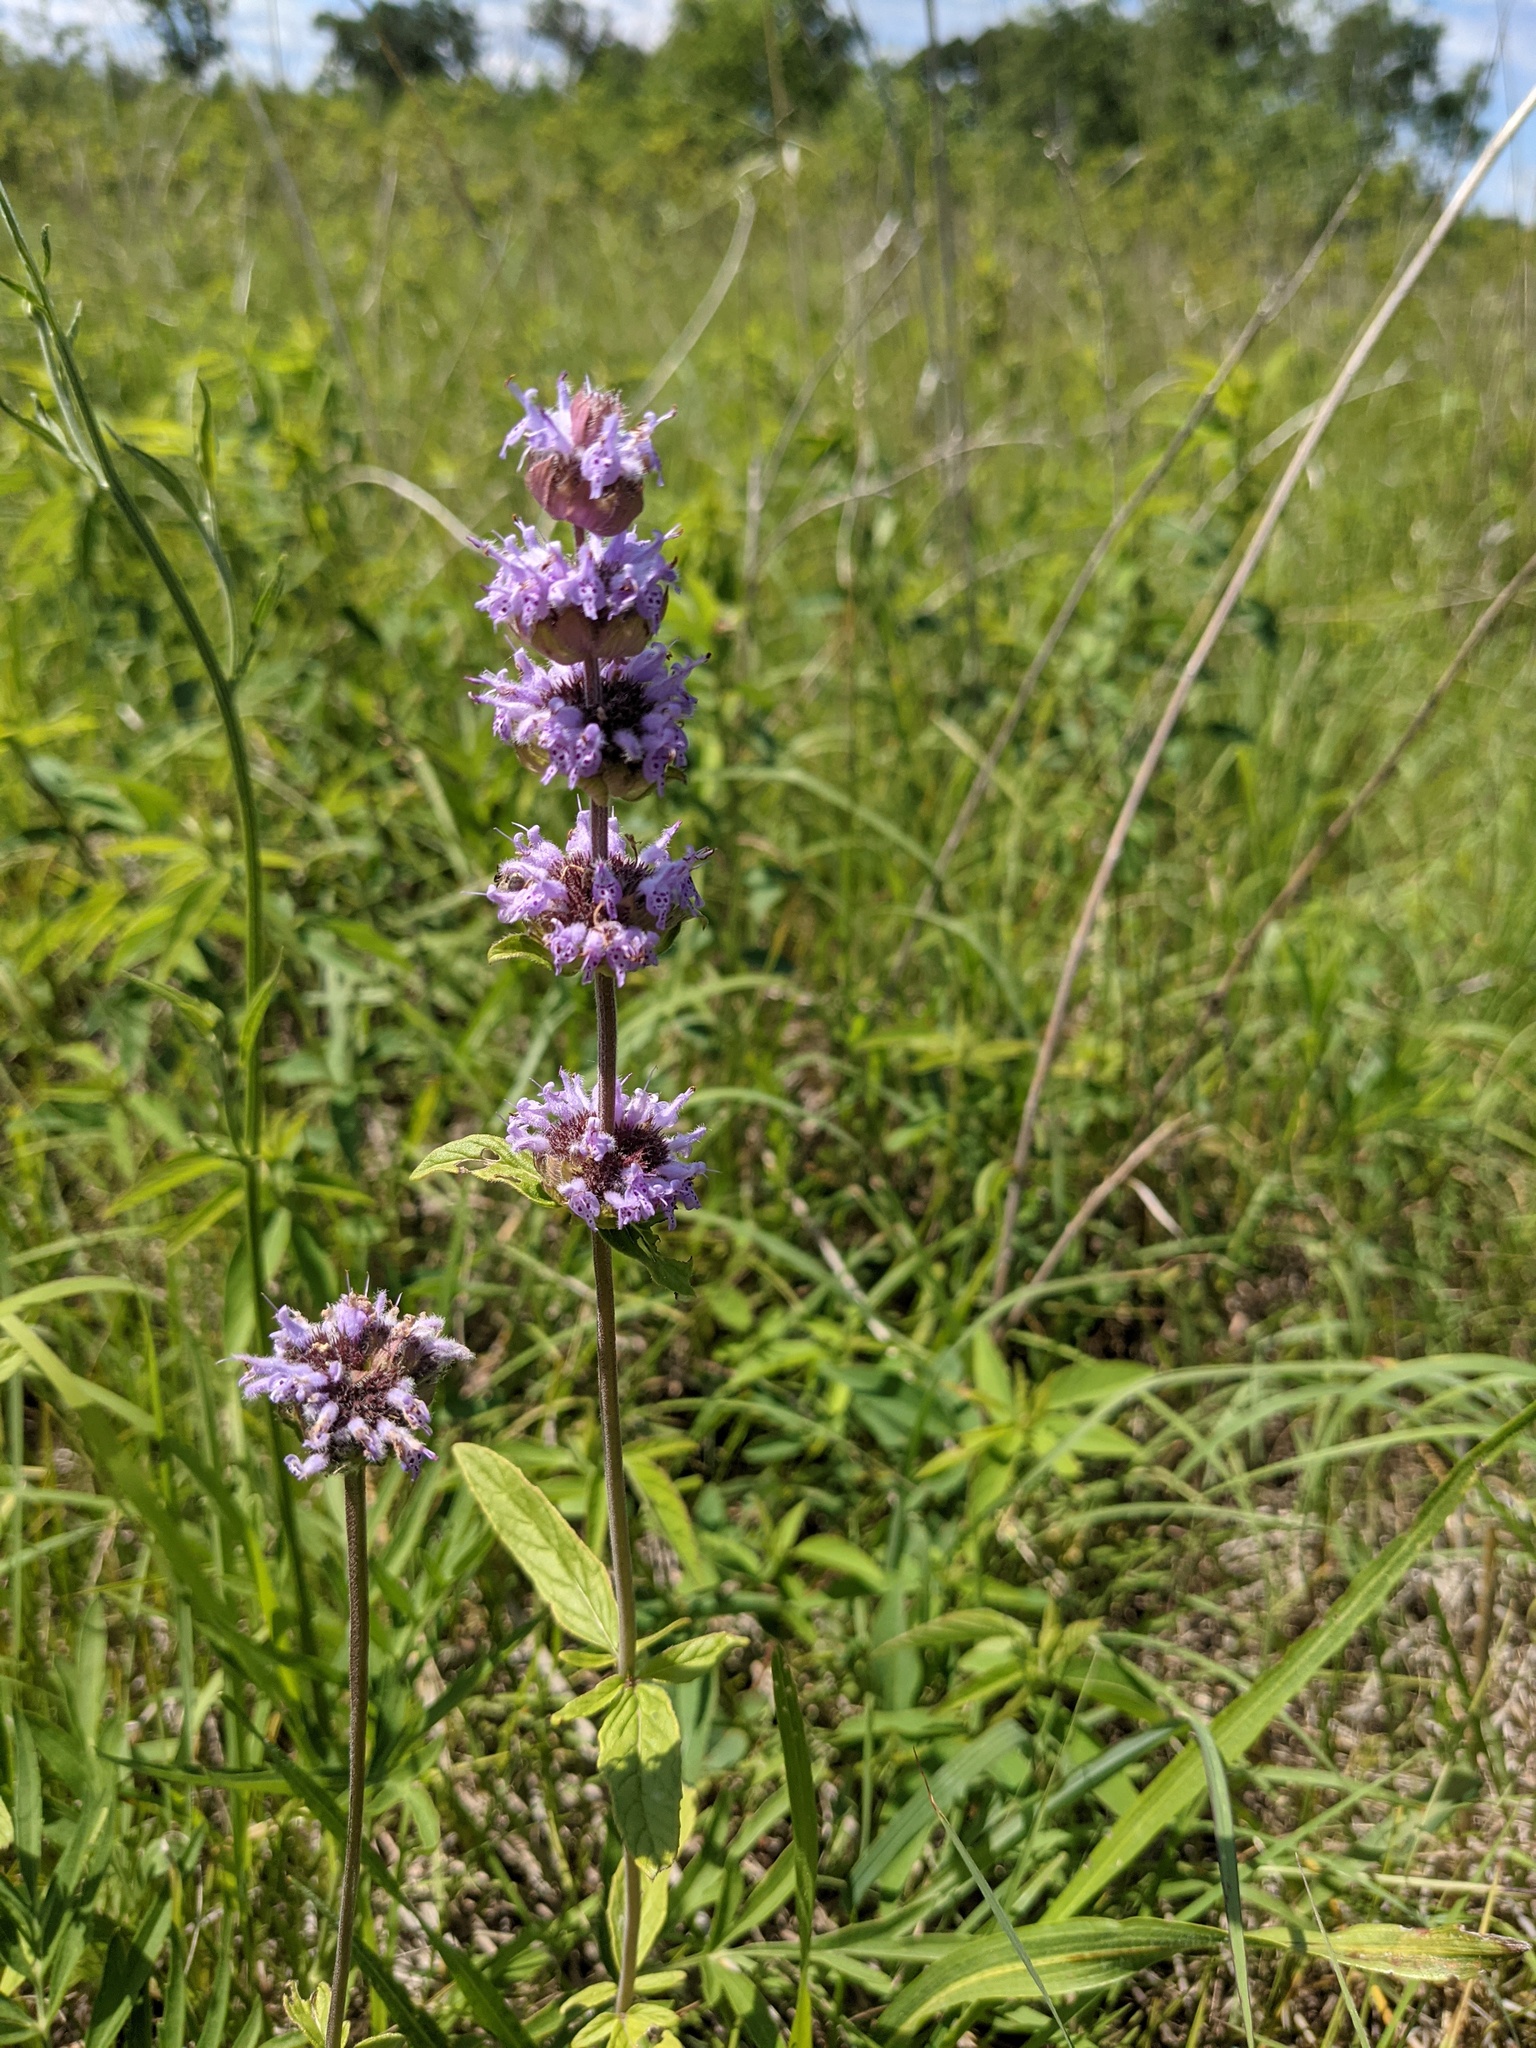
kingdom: Plantae
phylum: Tracheophyta
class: Magnoliopsida
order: Lamiales
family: Lamiaceae
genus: Blephilia
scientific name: Blephilia ciliata
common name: Downy blephilia
